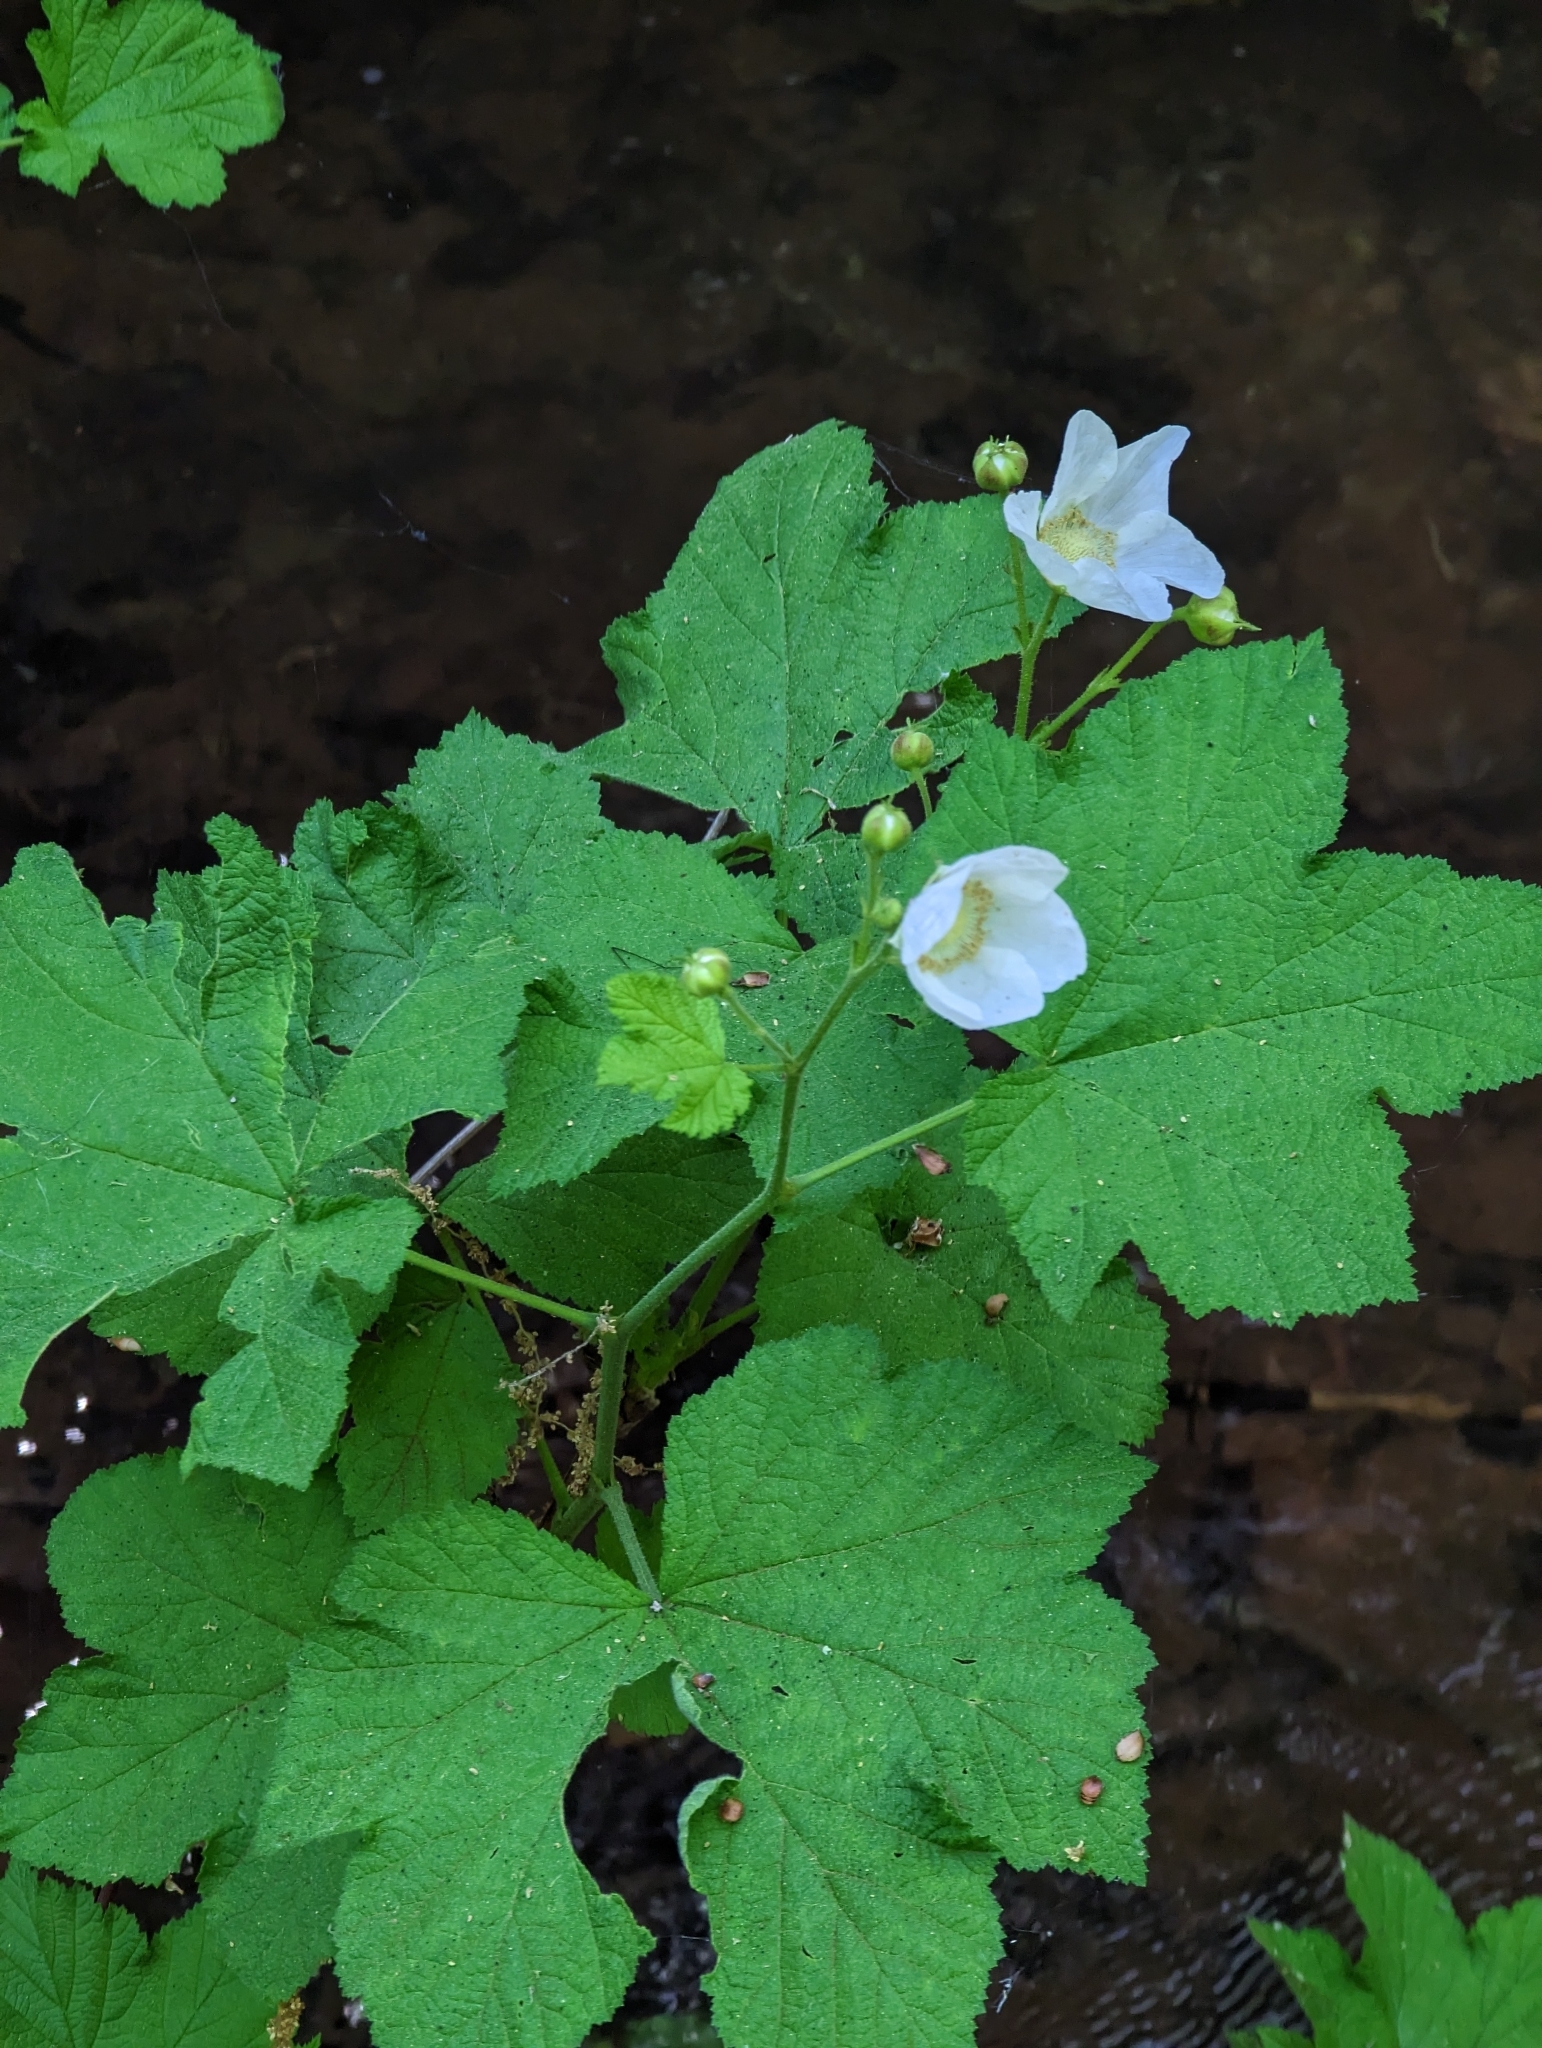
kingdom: Plantae
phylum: Tracheophyta
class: Magnoliopsida
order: Rosales
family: Rosaceae
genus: Rubus
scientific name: Rubus parviflorus
